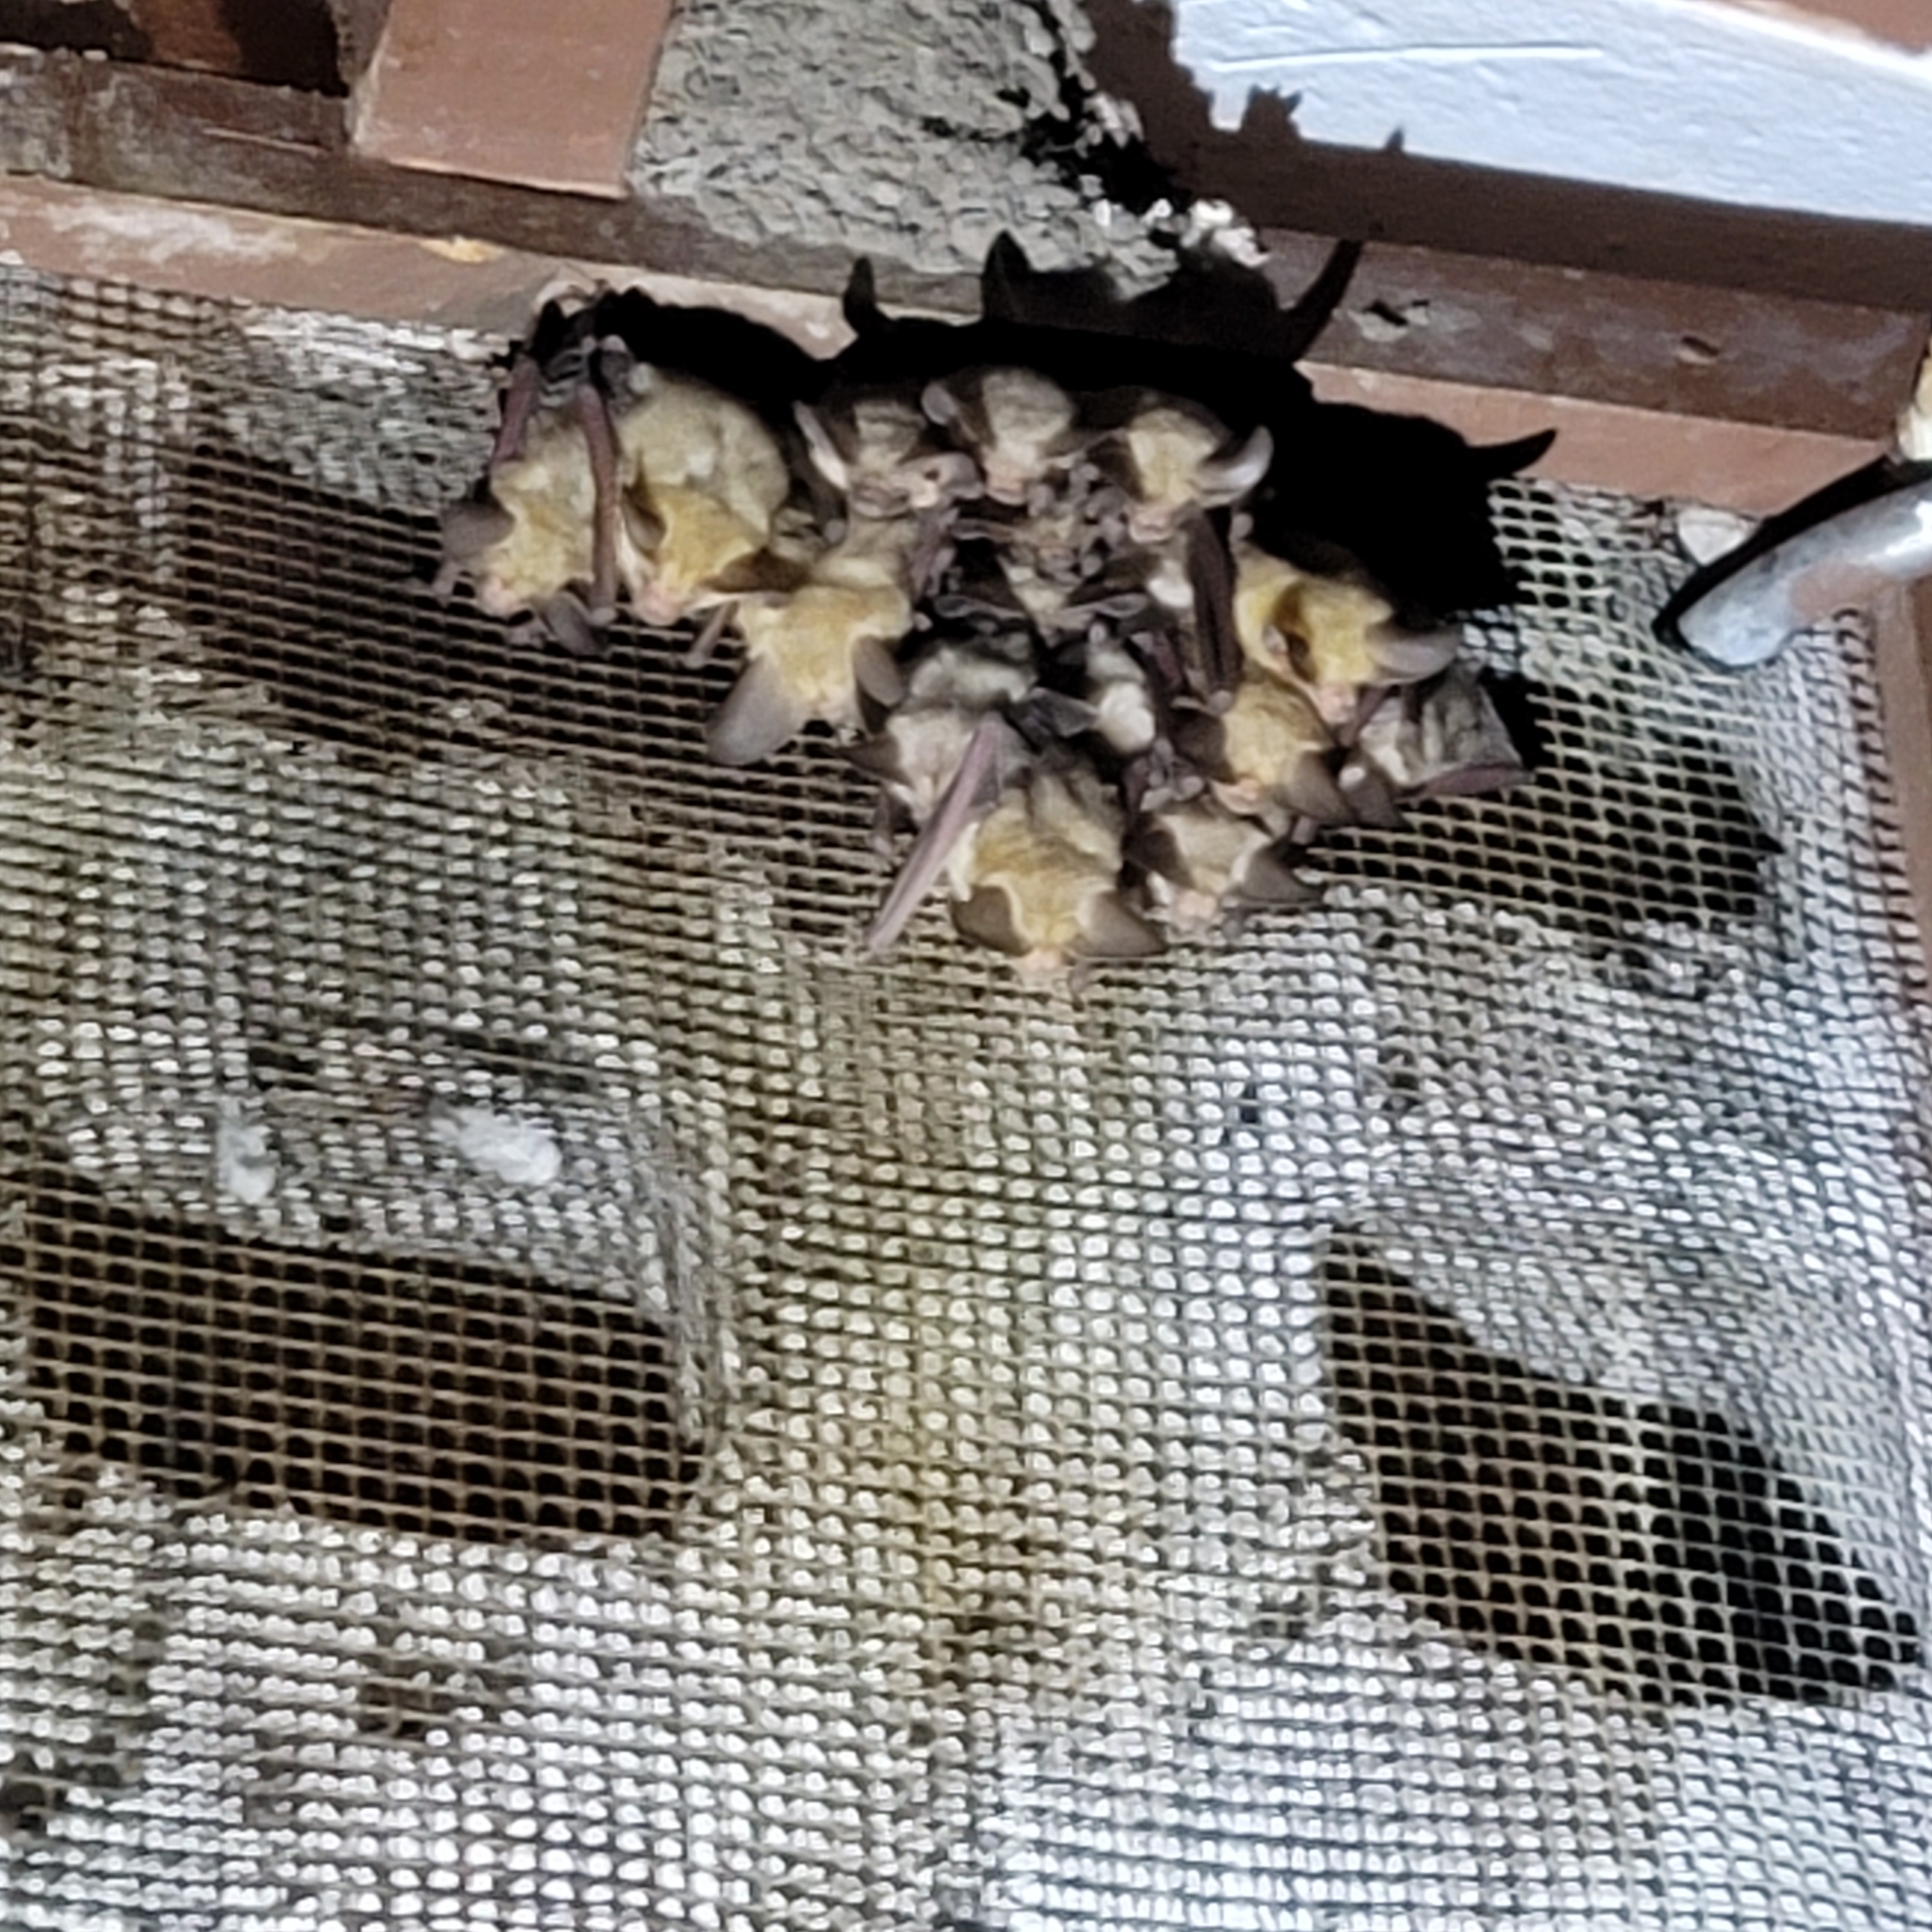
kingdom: Animalia
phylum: Chordata
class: Mammalia
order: Chiroptera
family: Vespertilionidae
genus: Antrozous
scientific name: Antrozous pallidus
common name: Pallid bat
